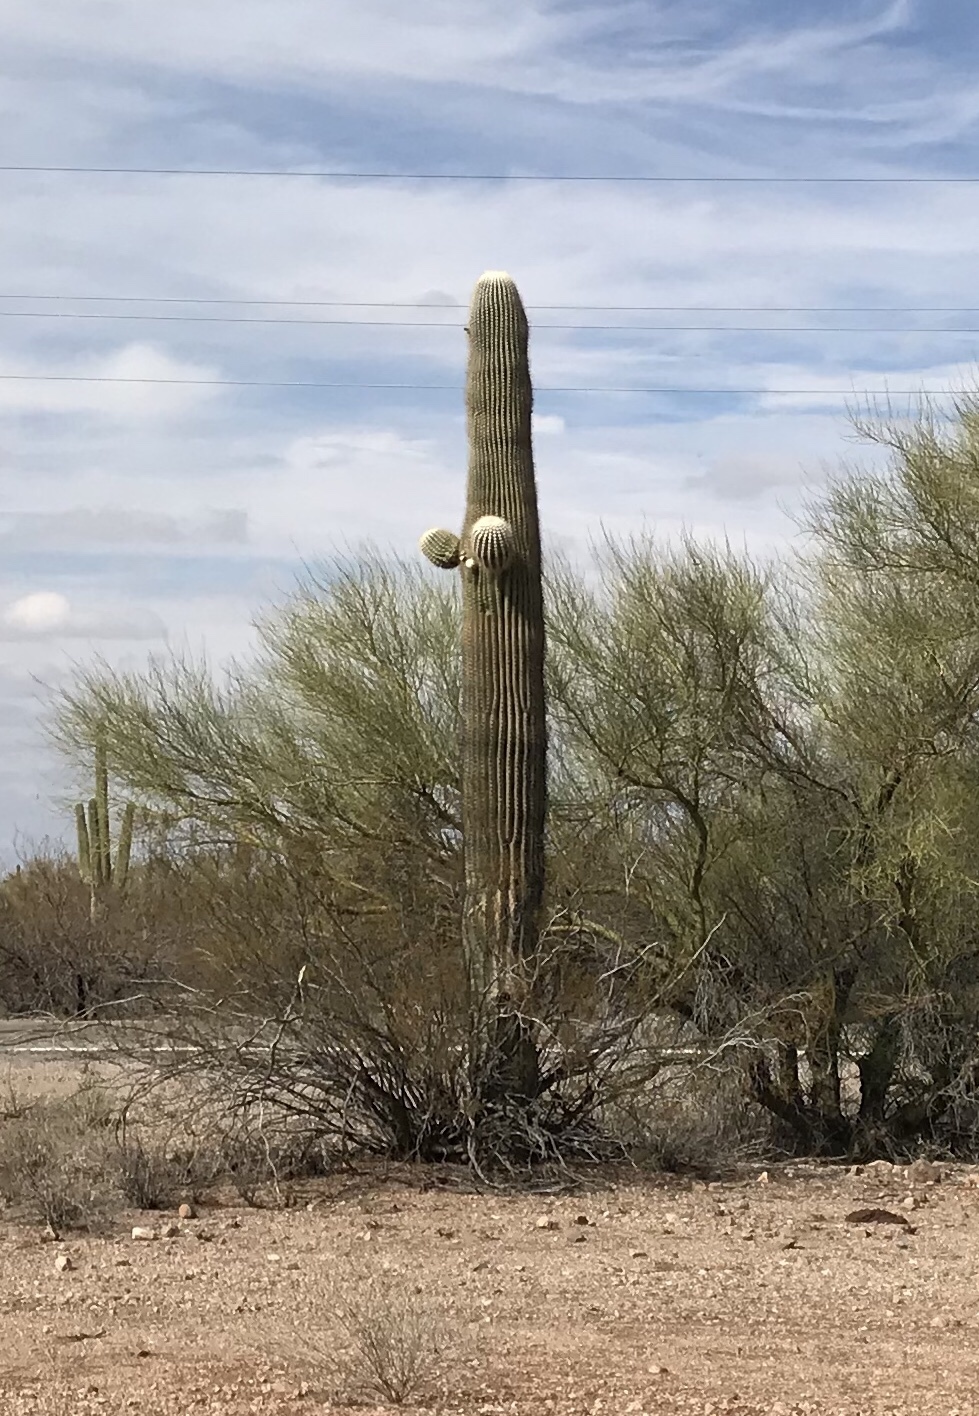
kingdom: Plantae
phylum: Tracheophyta
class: Magnoliopsida
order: Caryophyllales
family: Cactaceae
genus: Carnegiea
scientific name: Carnegiea gigantea
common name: Saguaro
